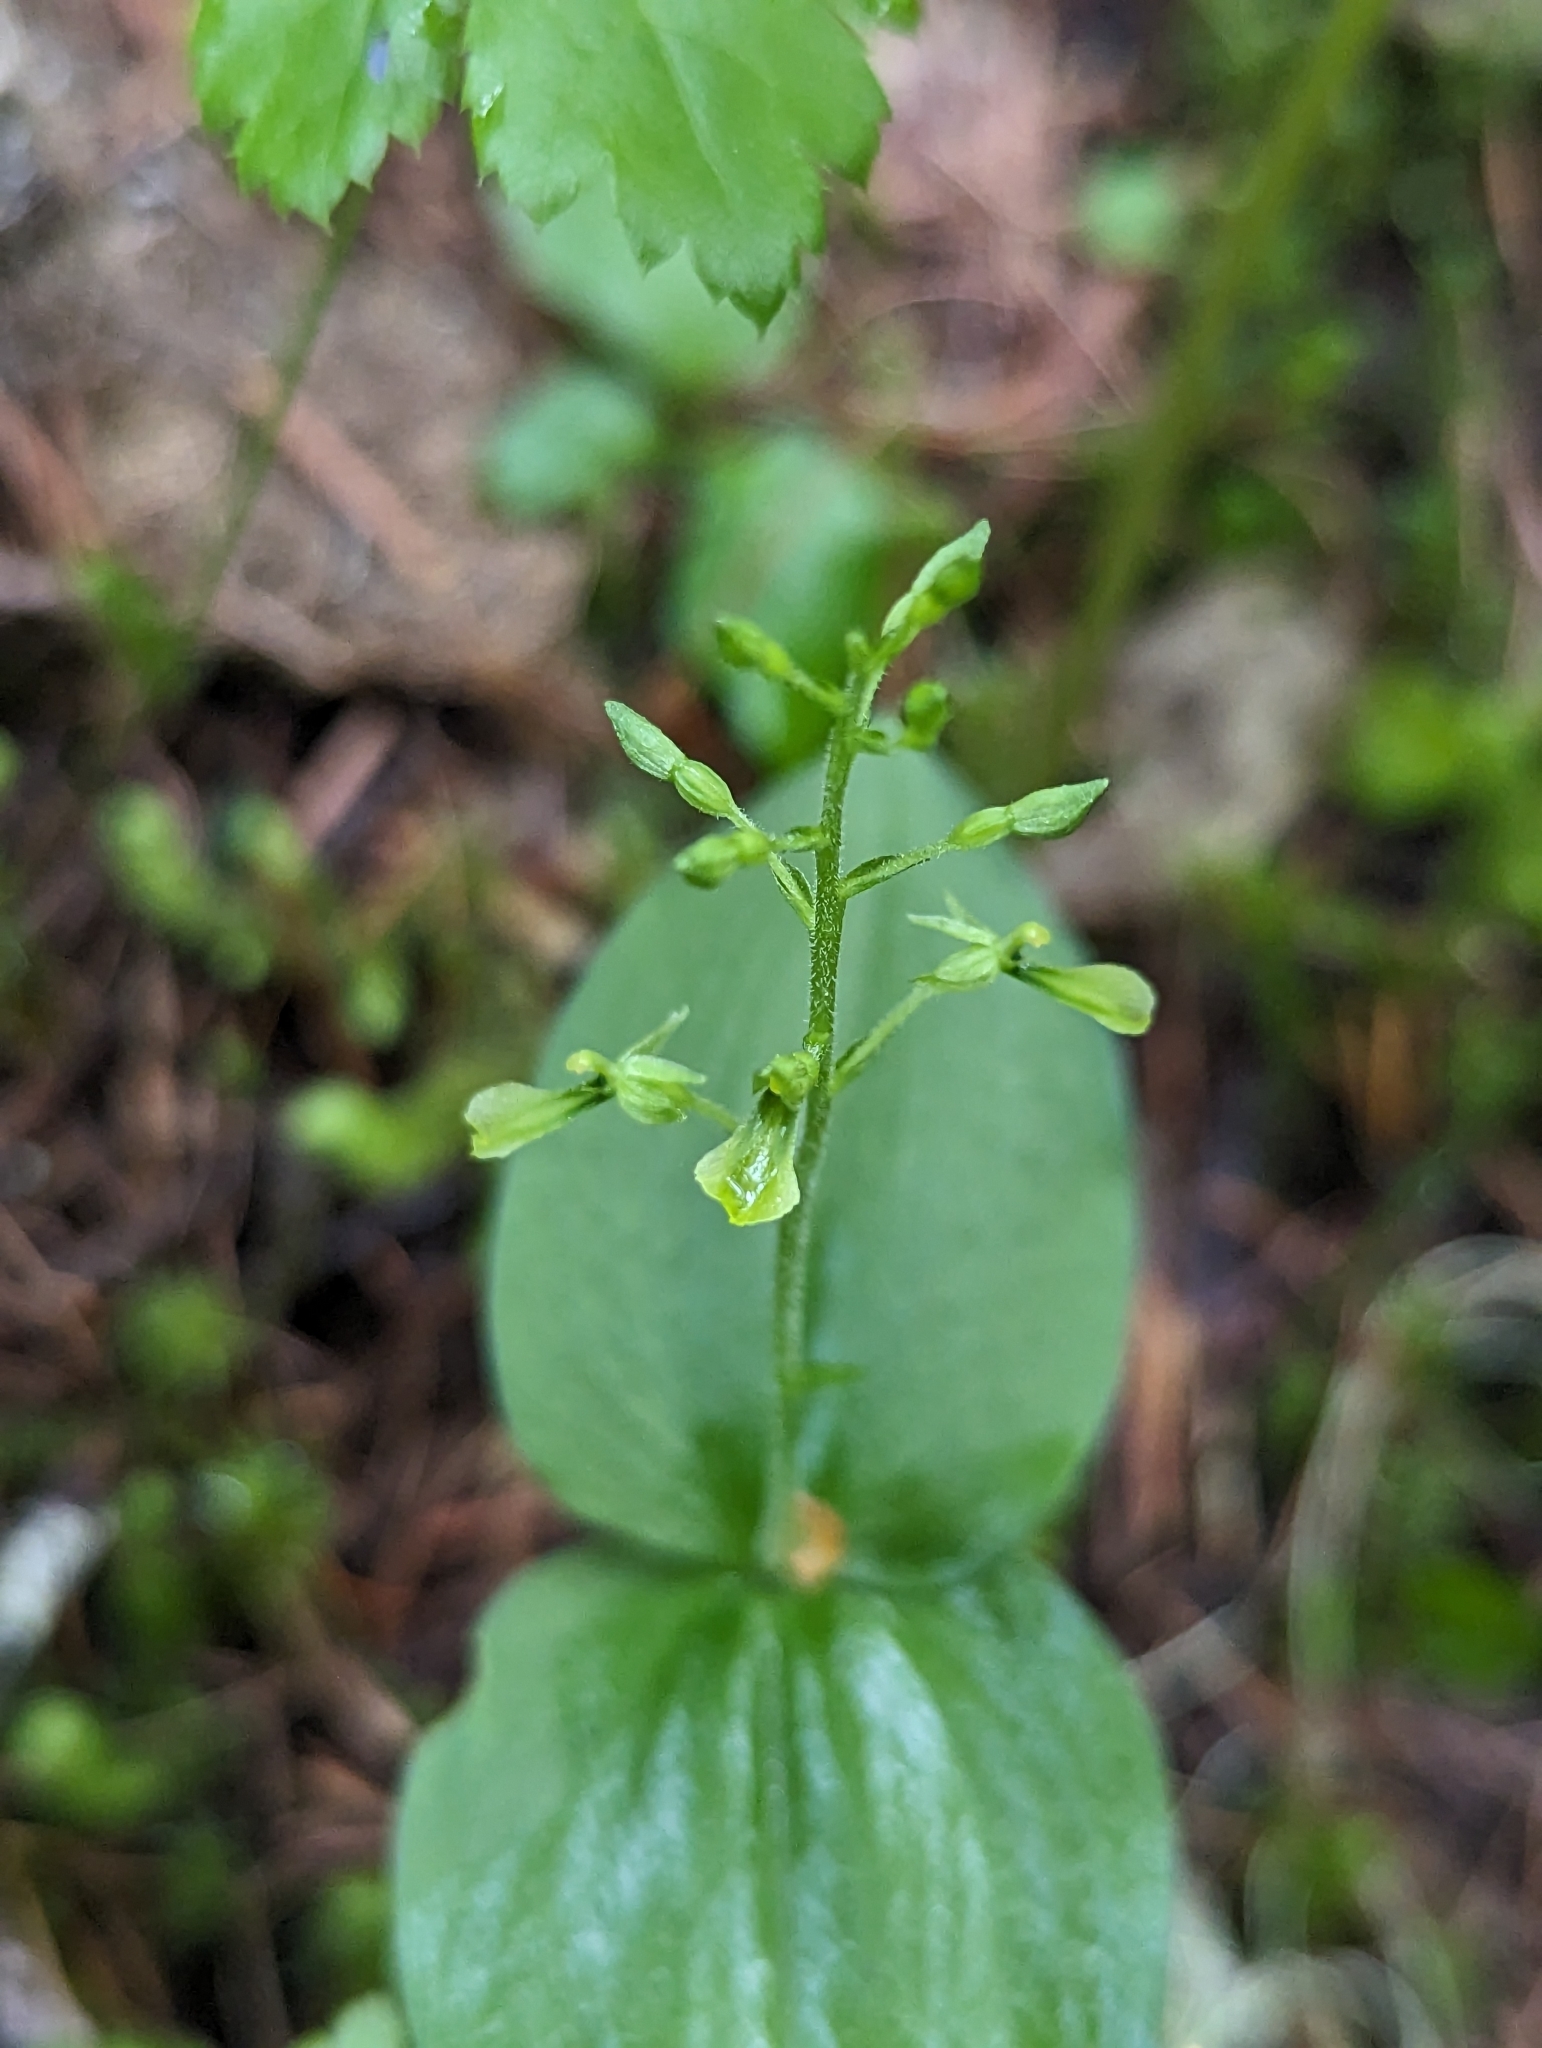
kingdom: Plantae
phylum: Tracheophyta
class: Liliopsida
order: Asparagales
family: Orchidaceae
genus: Neottia
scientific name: Neottia banksiana
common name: Northwestern twayblade
